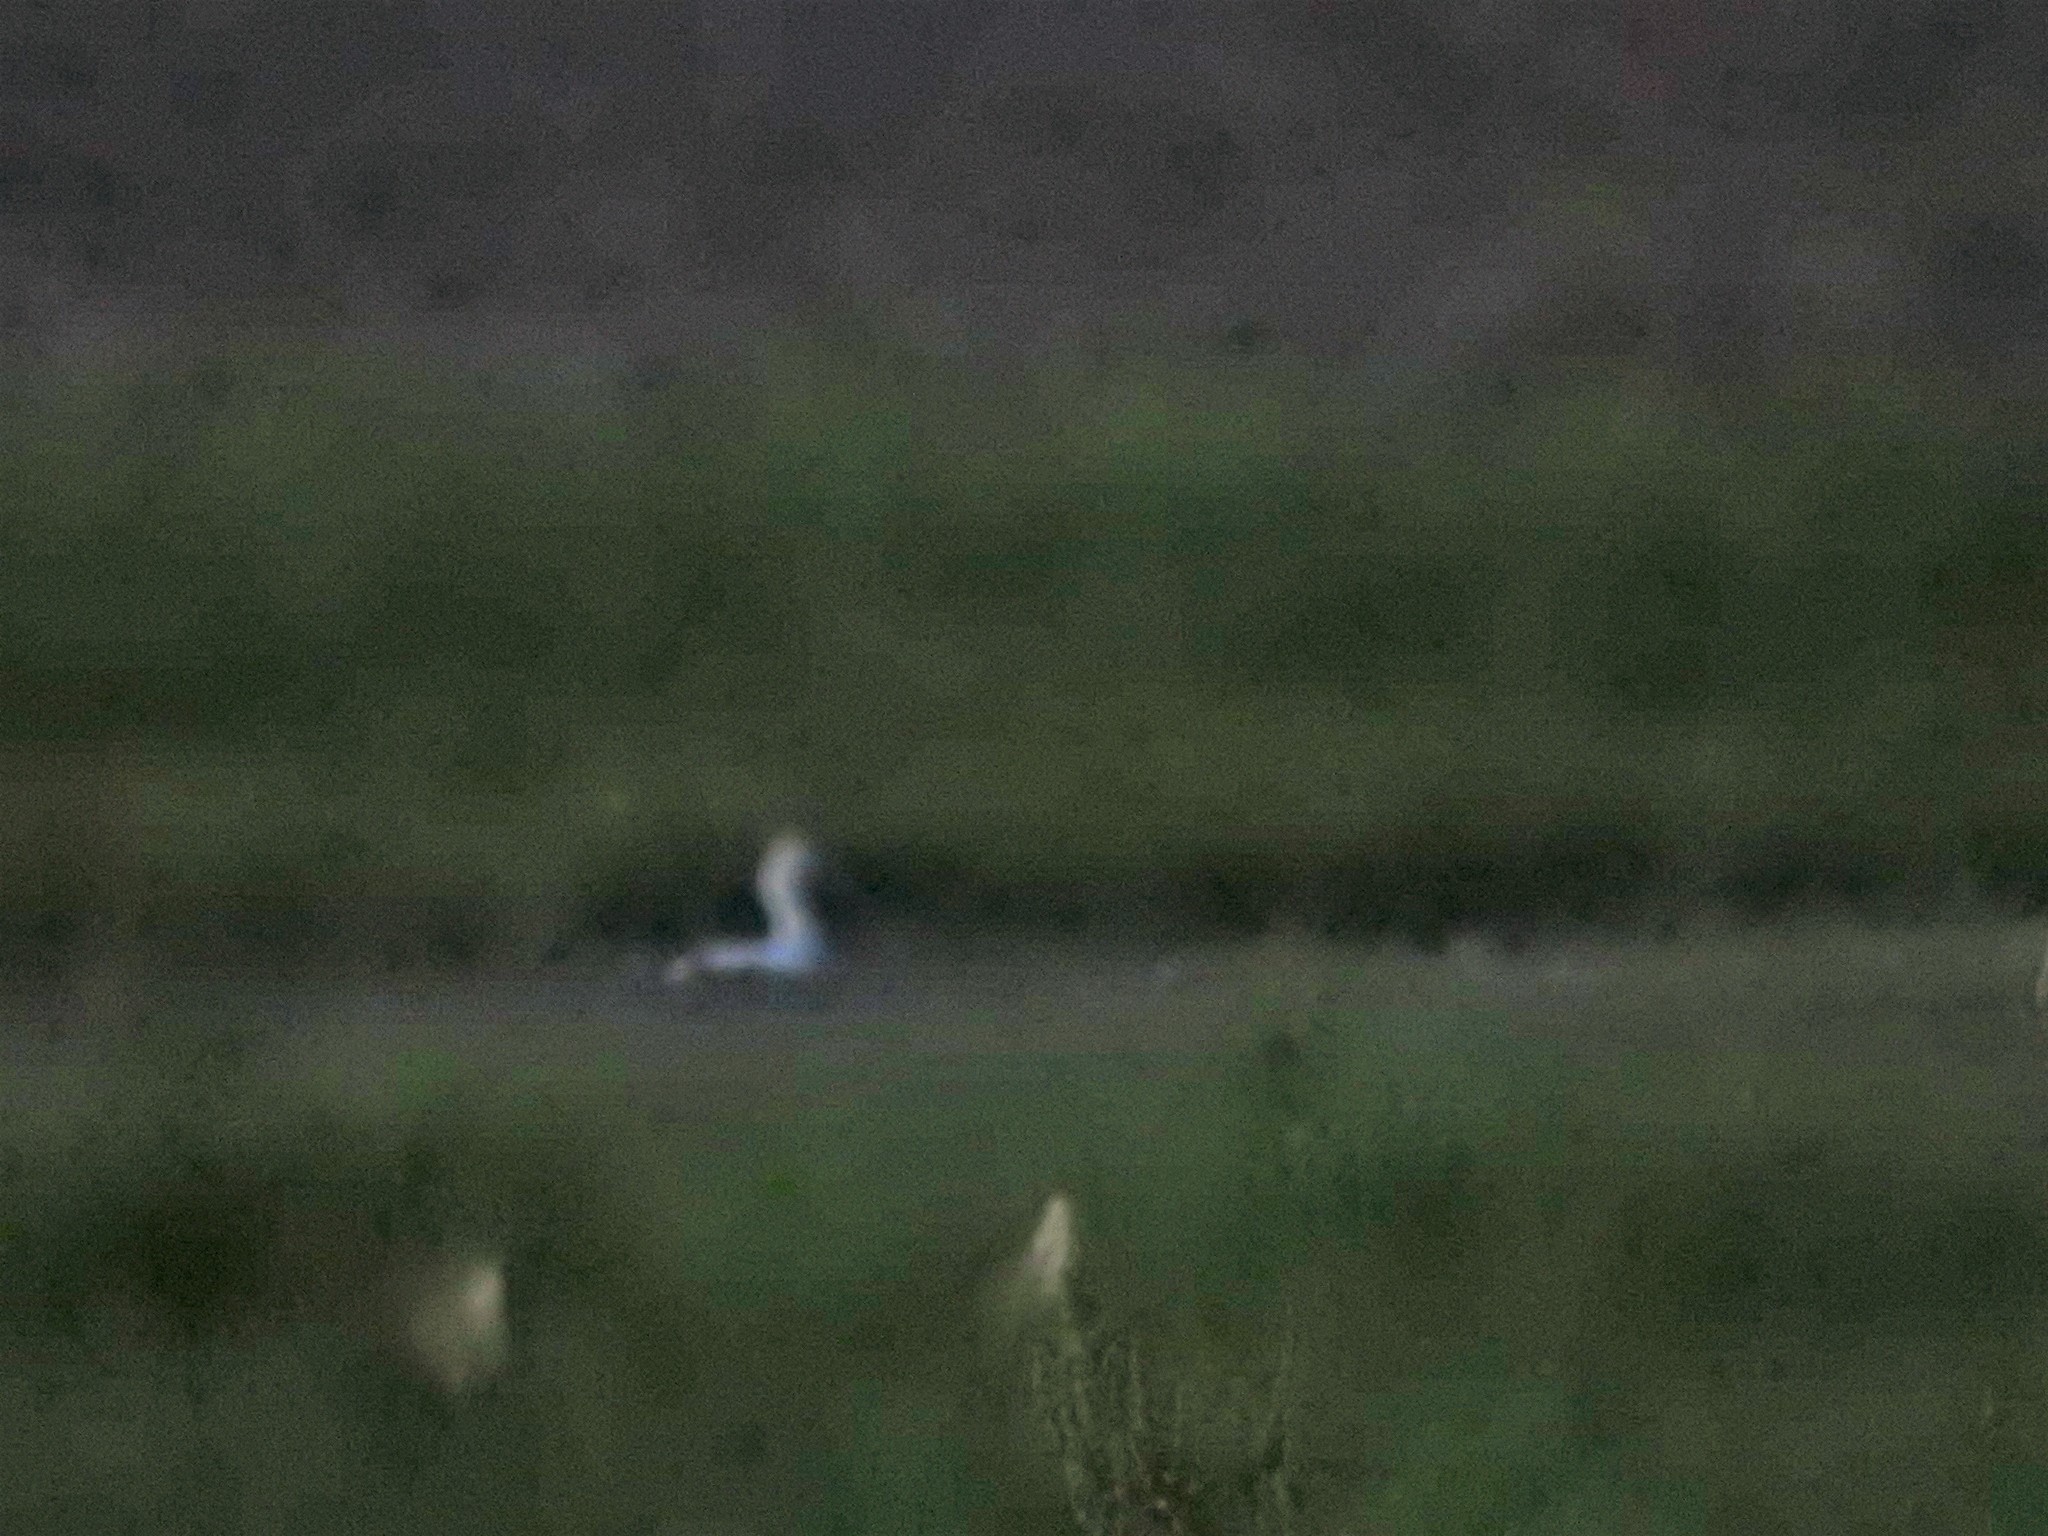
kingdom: Animalia
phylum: Chordata
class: Aves
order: Pelecaniformes
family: Threskiornithidae
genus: Platalea
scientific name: Platalea ajaja
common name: Roseate spoonbill
